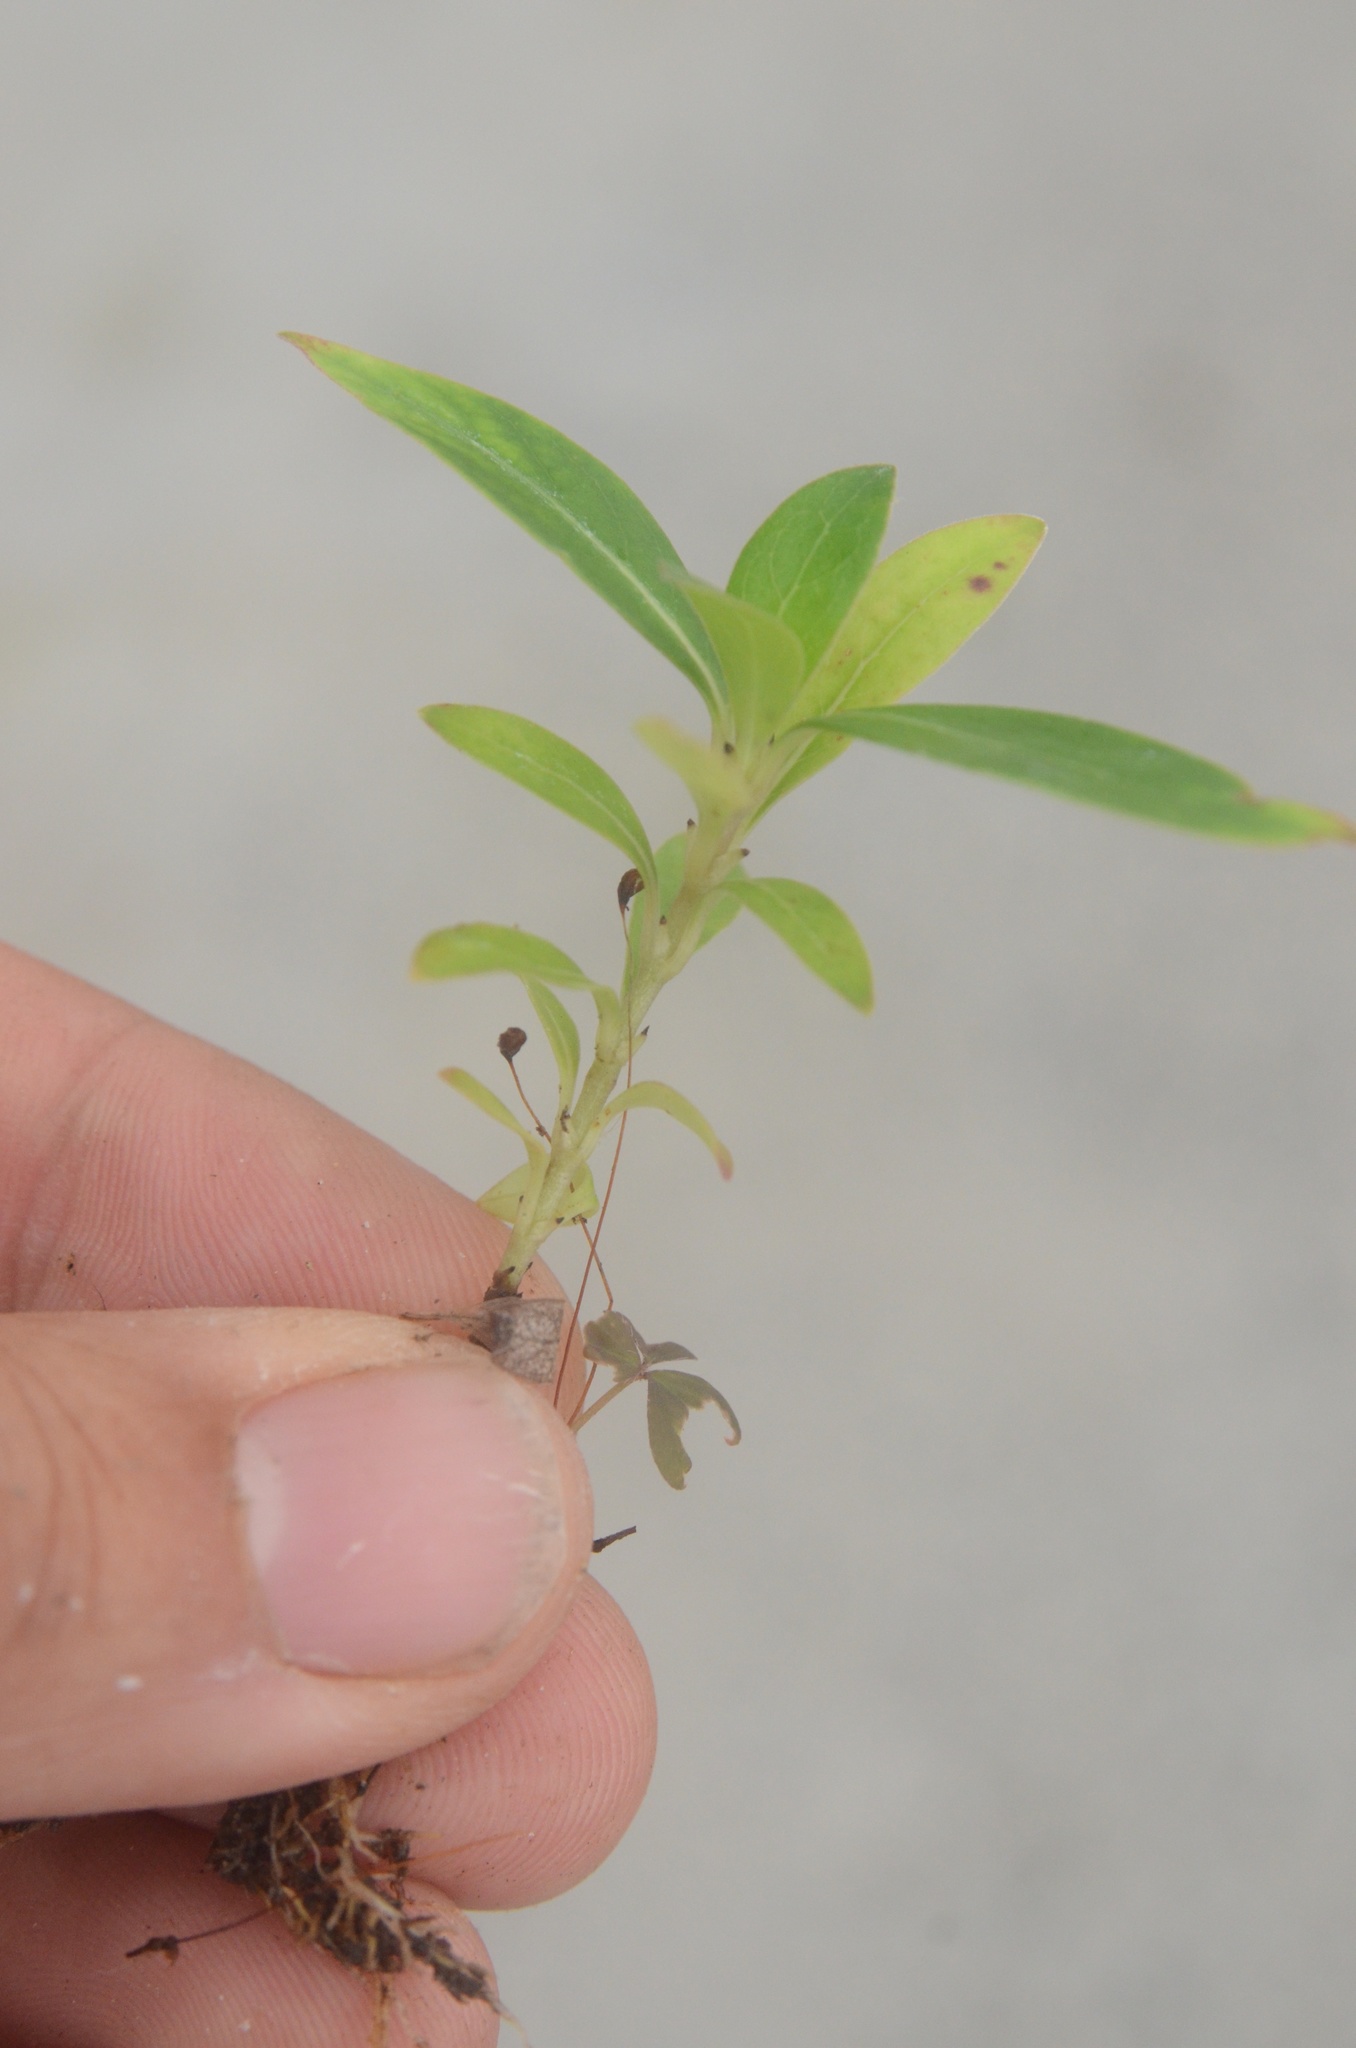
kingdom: Plantae
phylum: Tracheophyta
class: Magnoliopsida
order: Gentianales
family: Rubiaceae
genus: Coprosma
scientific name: Coprosma robusta
